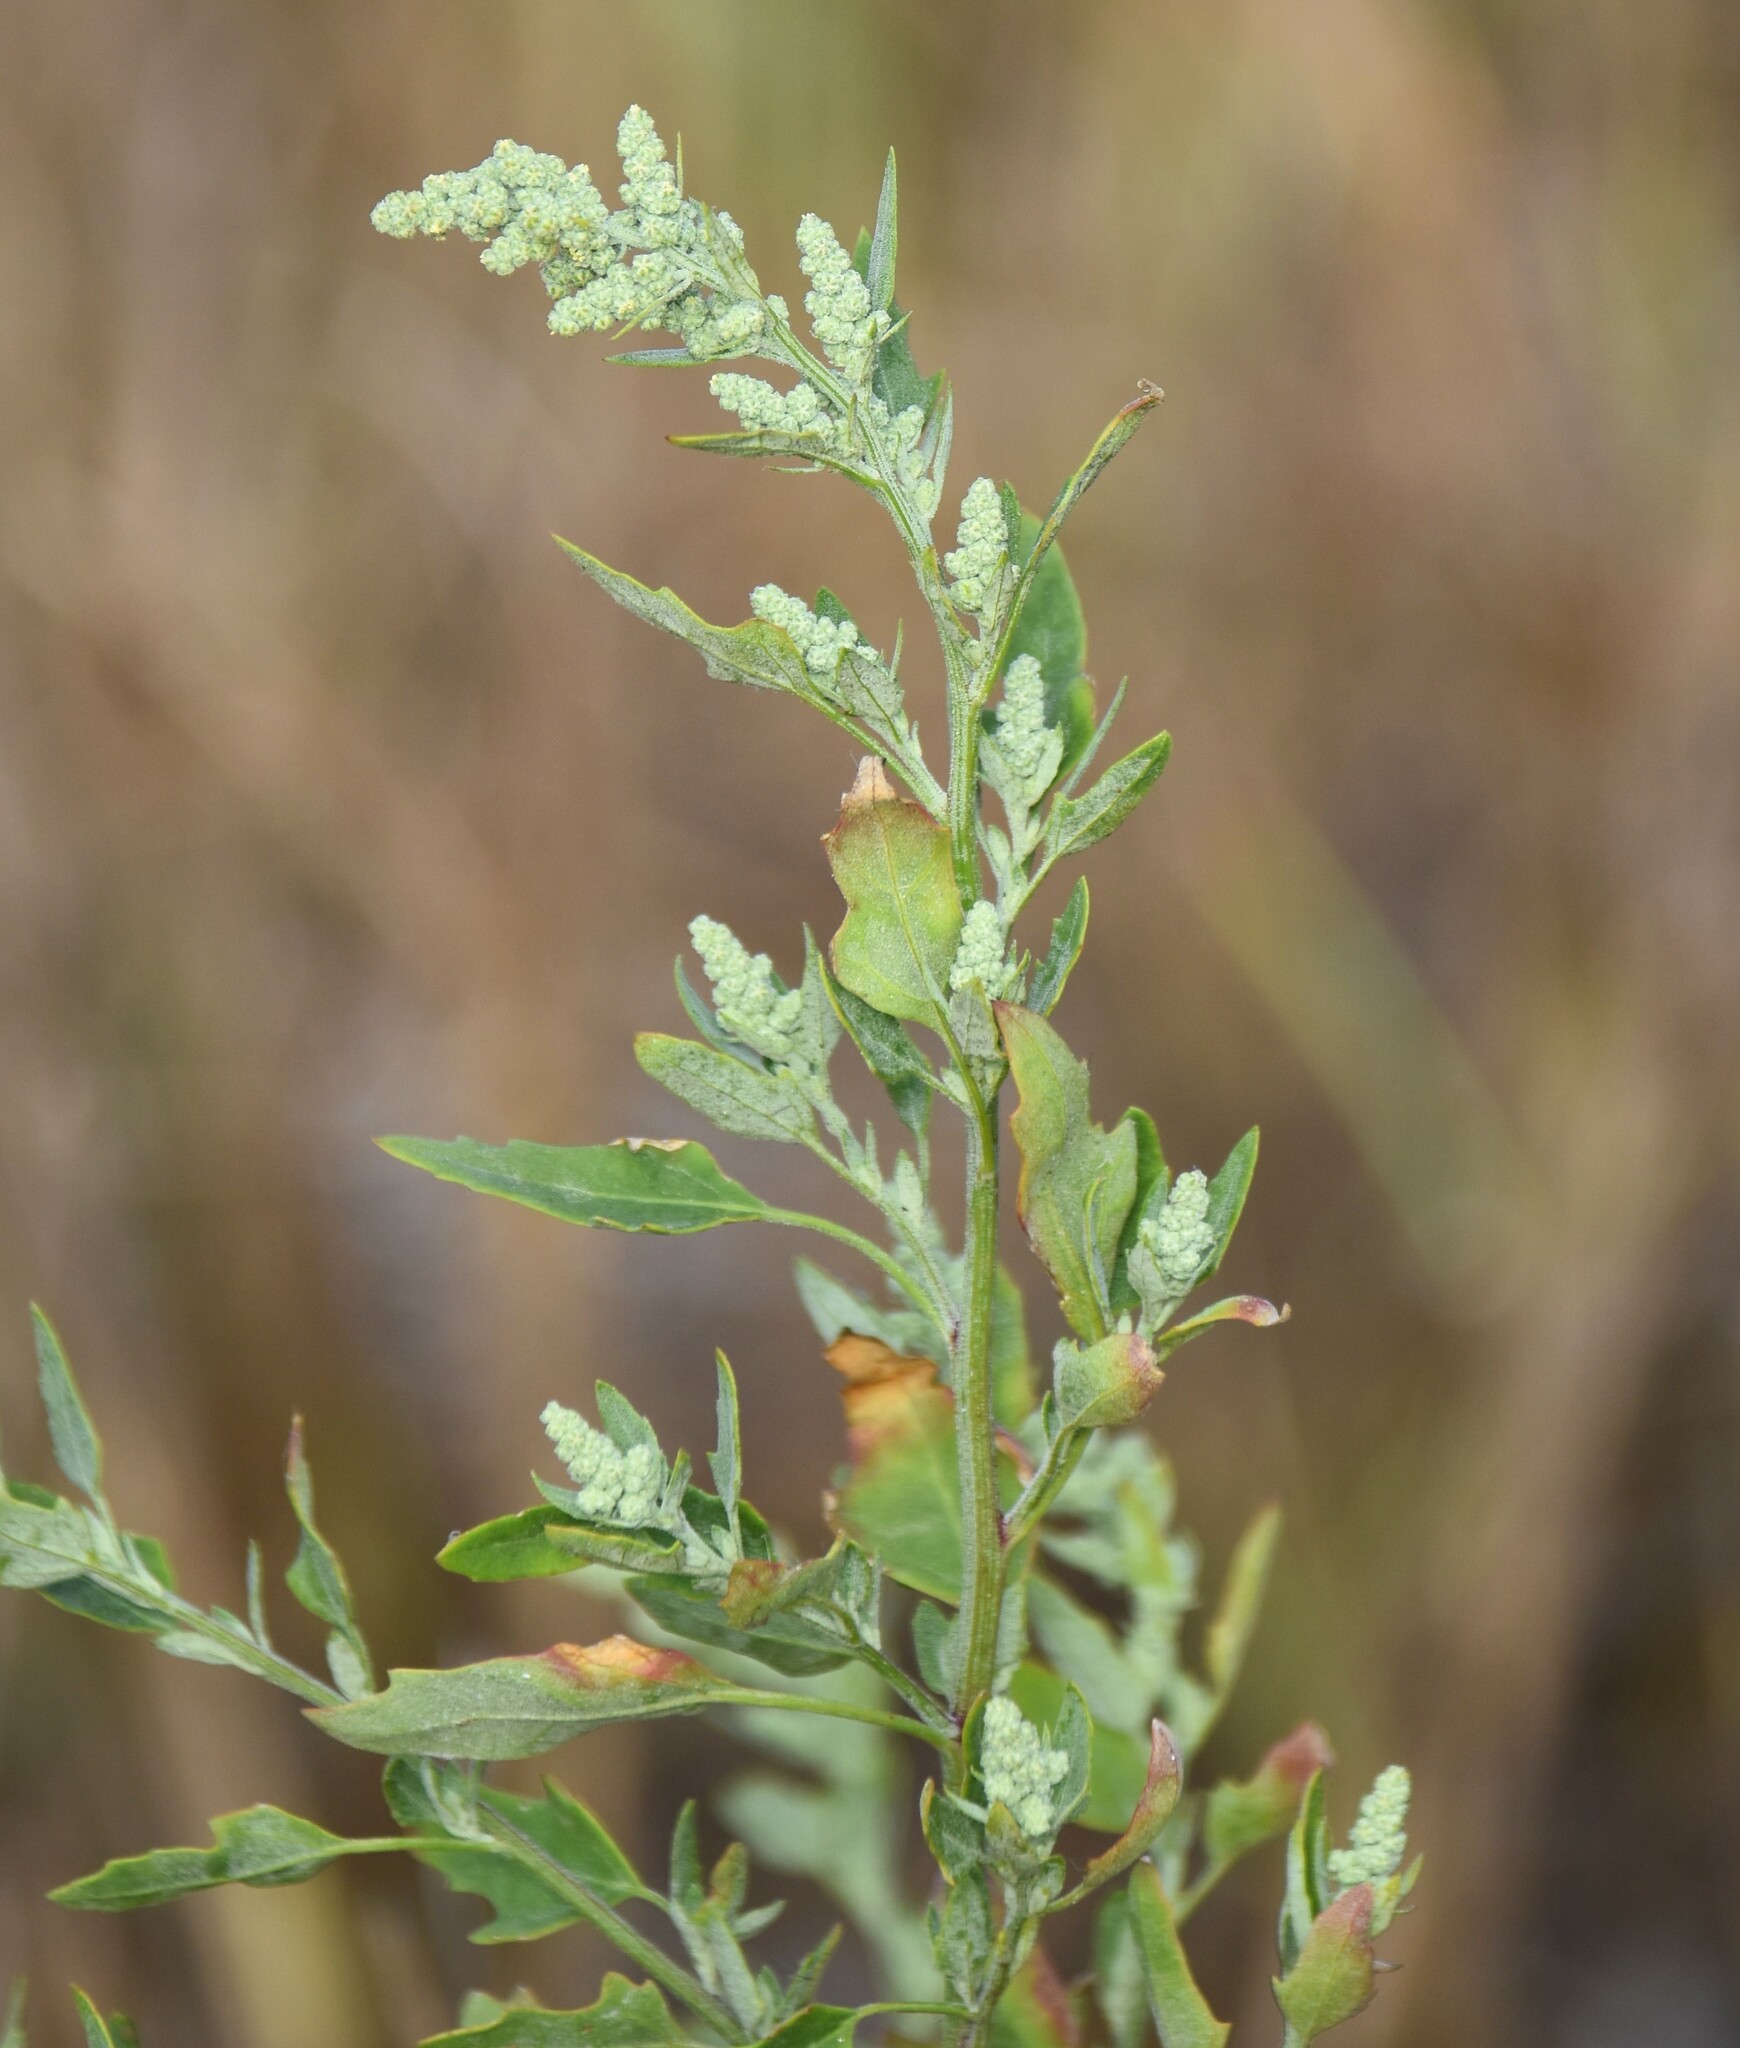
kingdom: Plantae
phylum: Tracheophyta
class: Magnoliopsida
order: Caryophyllales
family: Amaranthaceae
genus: Chenopodium
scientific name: Chenopodium album
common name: Fat-hen
